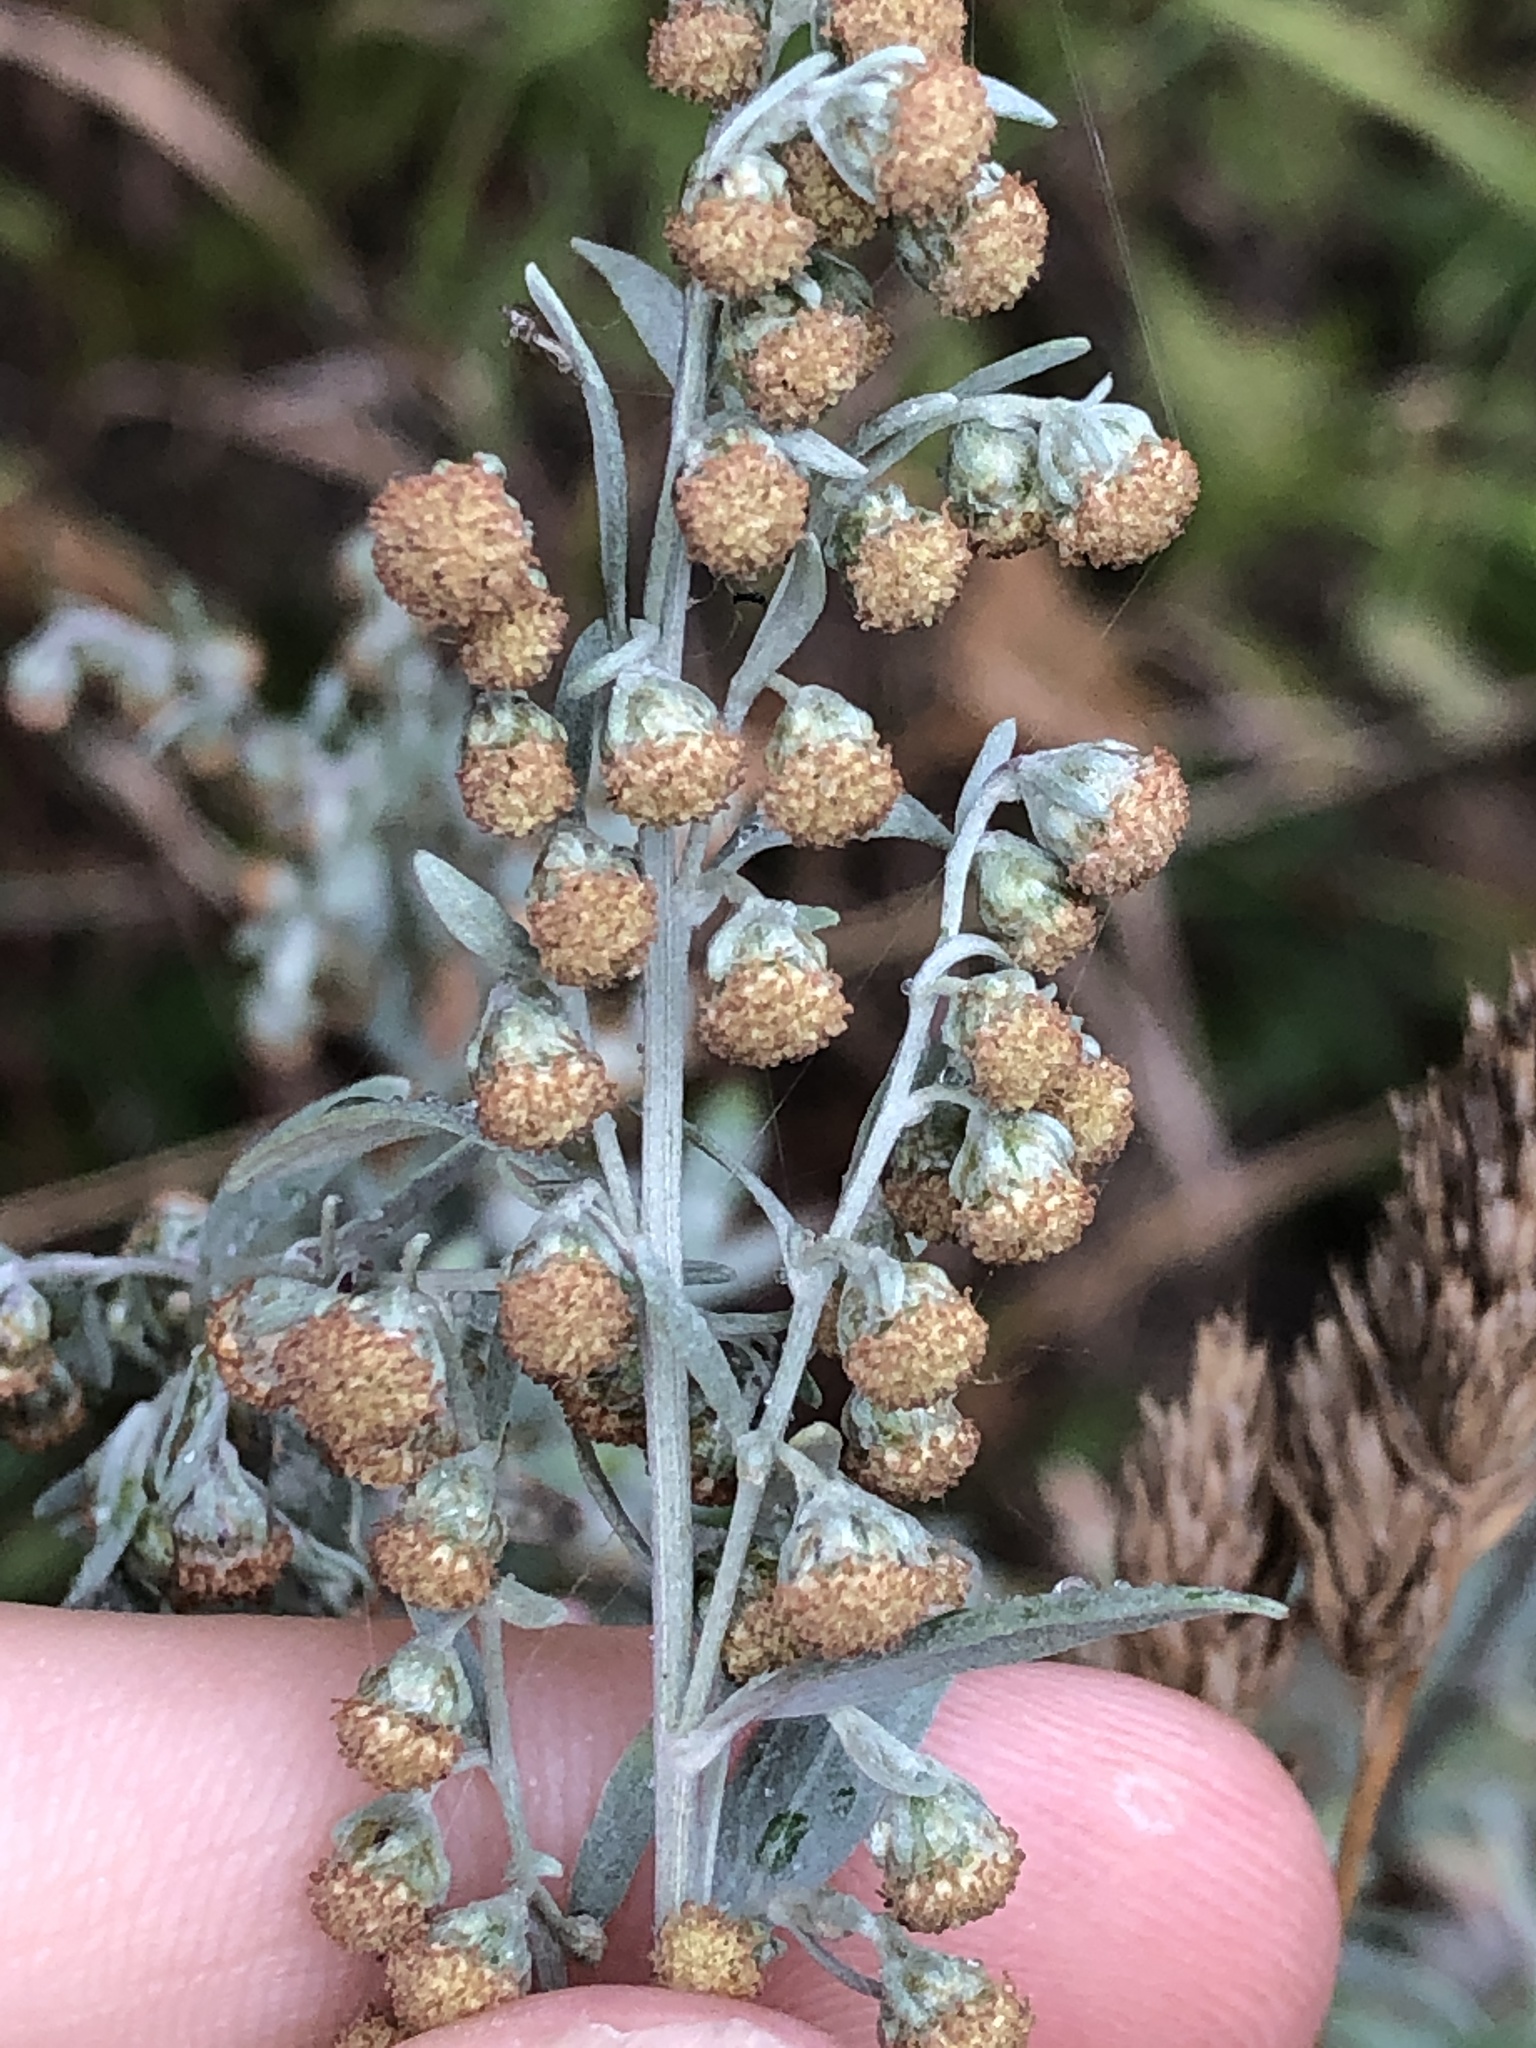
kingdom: Plantae
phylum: Tracheophyta
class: Magnoliopsida
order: Asterales
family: Asteraceae
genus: Artemisia
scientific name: Artemisia absinthium
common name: Wormwood
